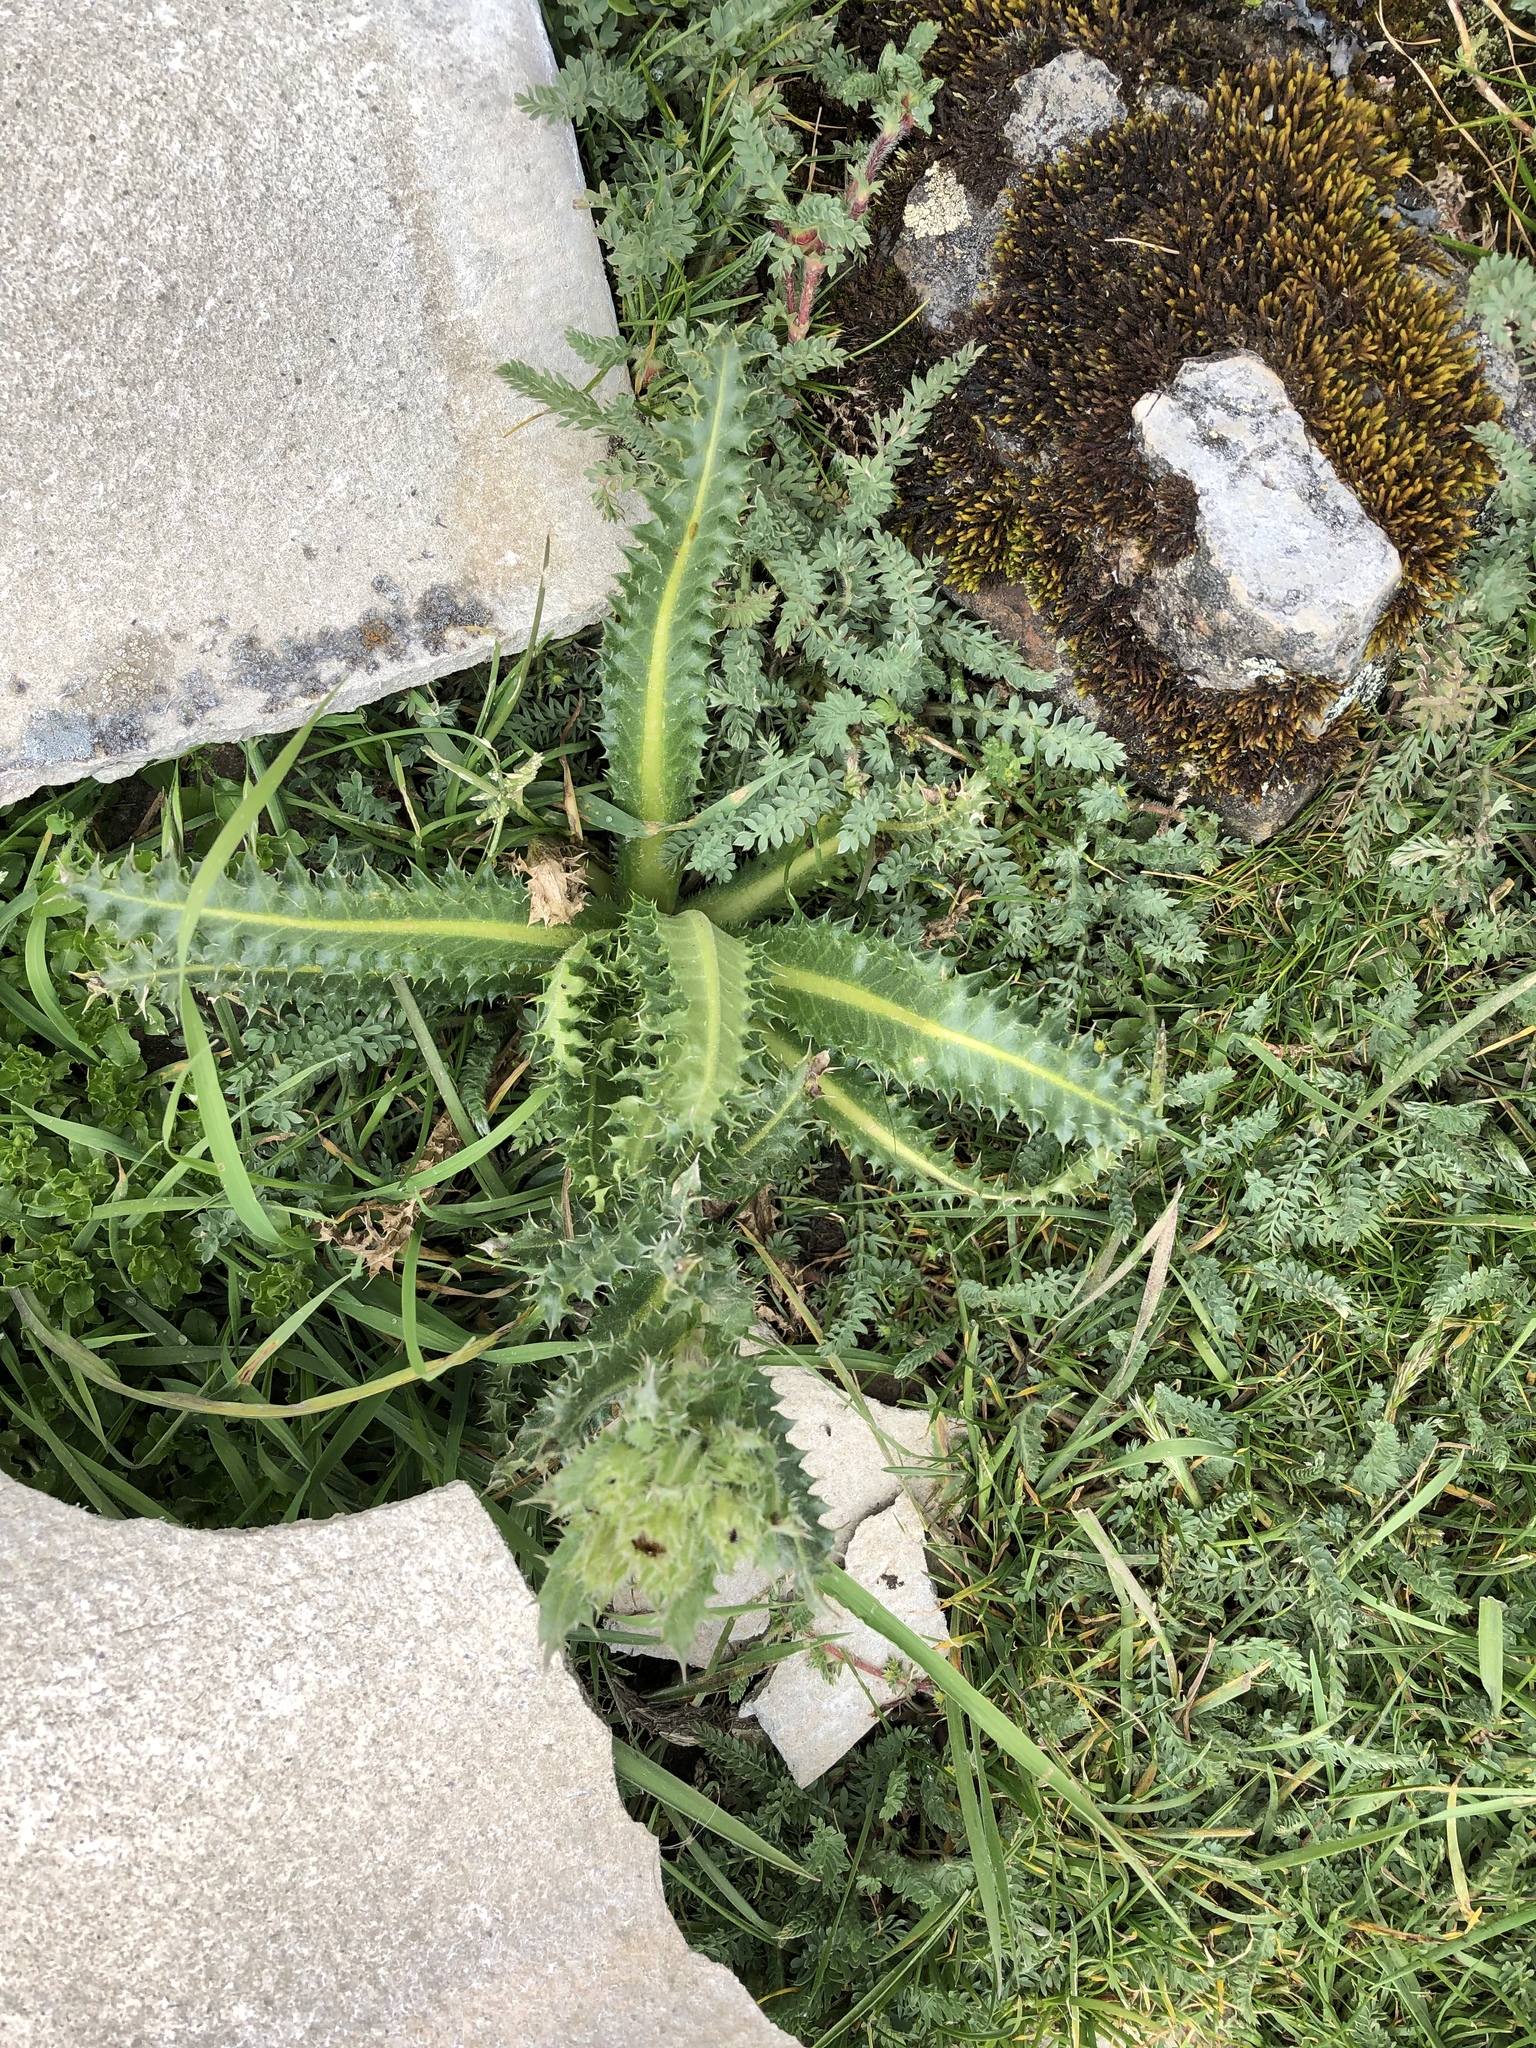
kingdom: Plantae
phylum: Tracheophyta
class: Magnoliopsida
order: Asterales
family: Asteraceae
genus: Perezia
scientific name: Perezia multiflora
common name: Perezia
